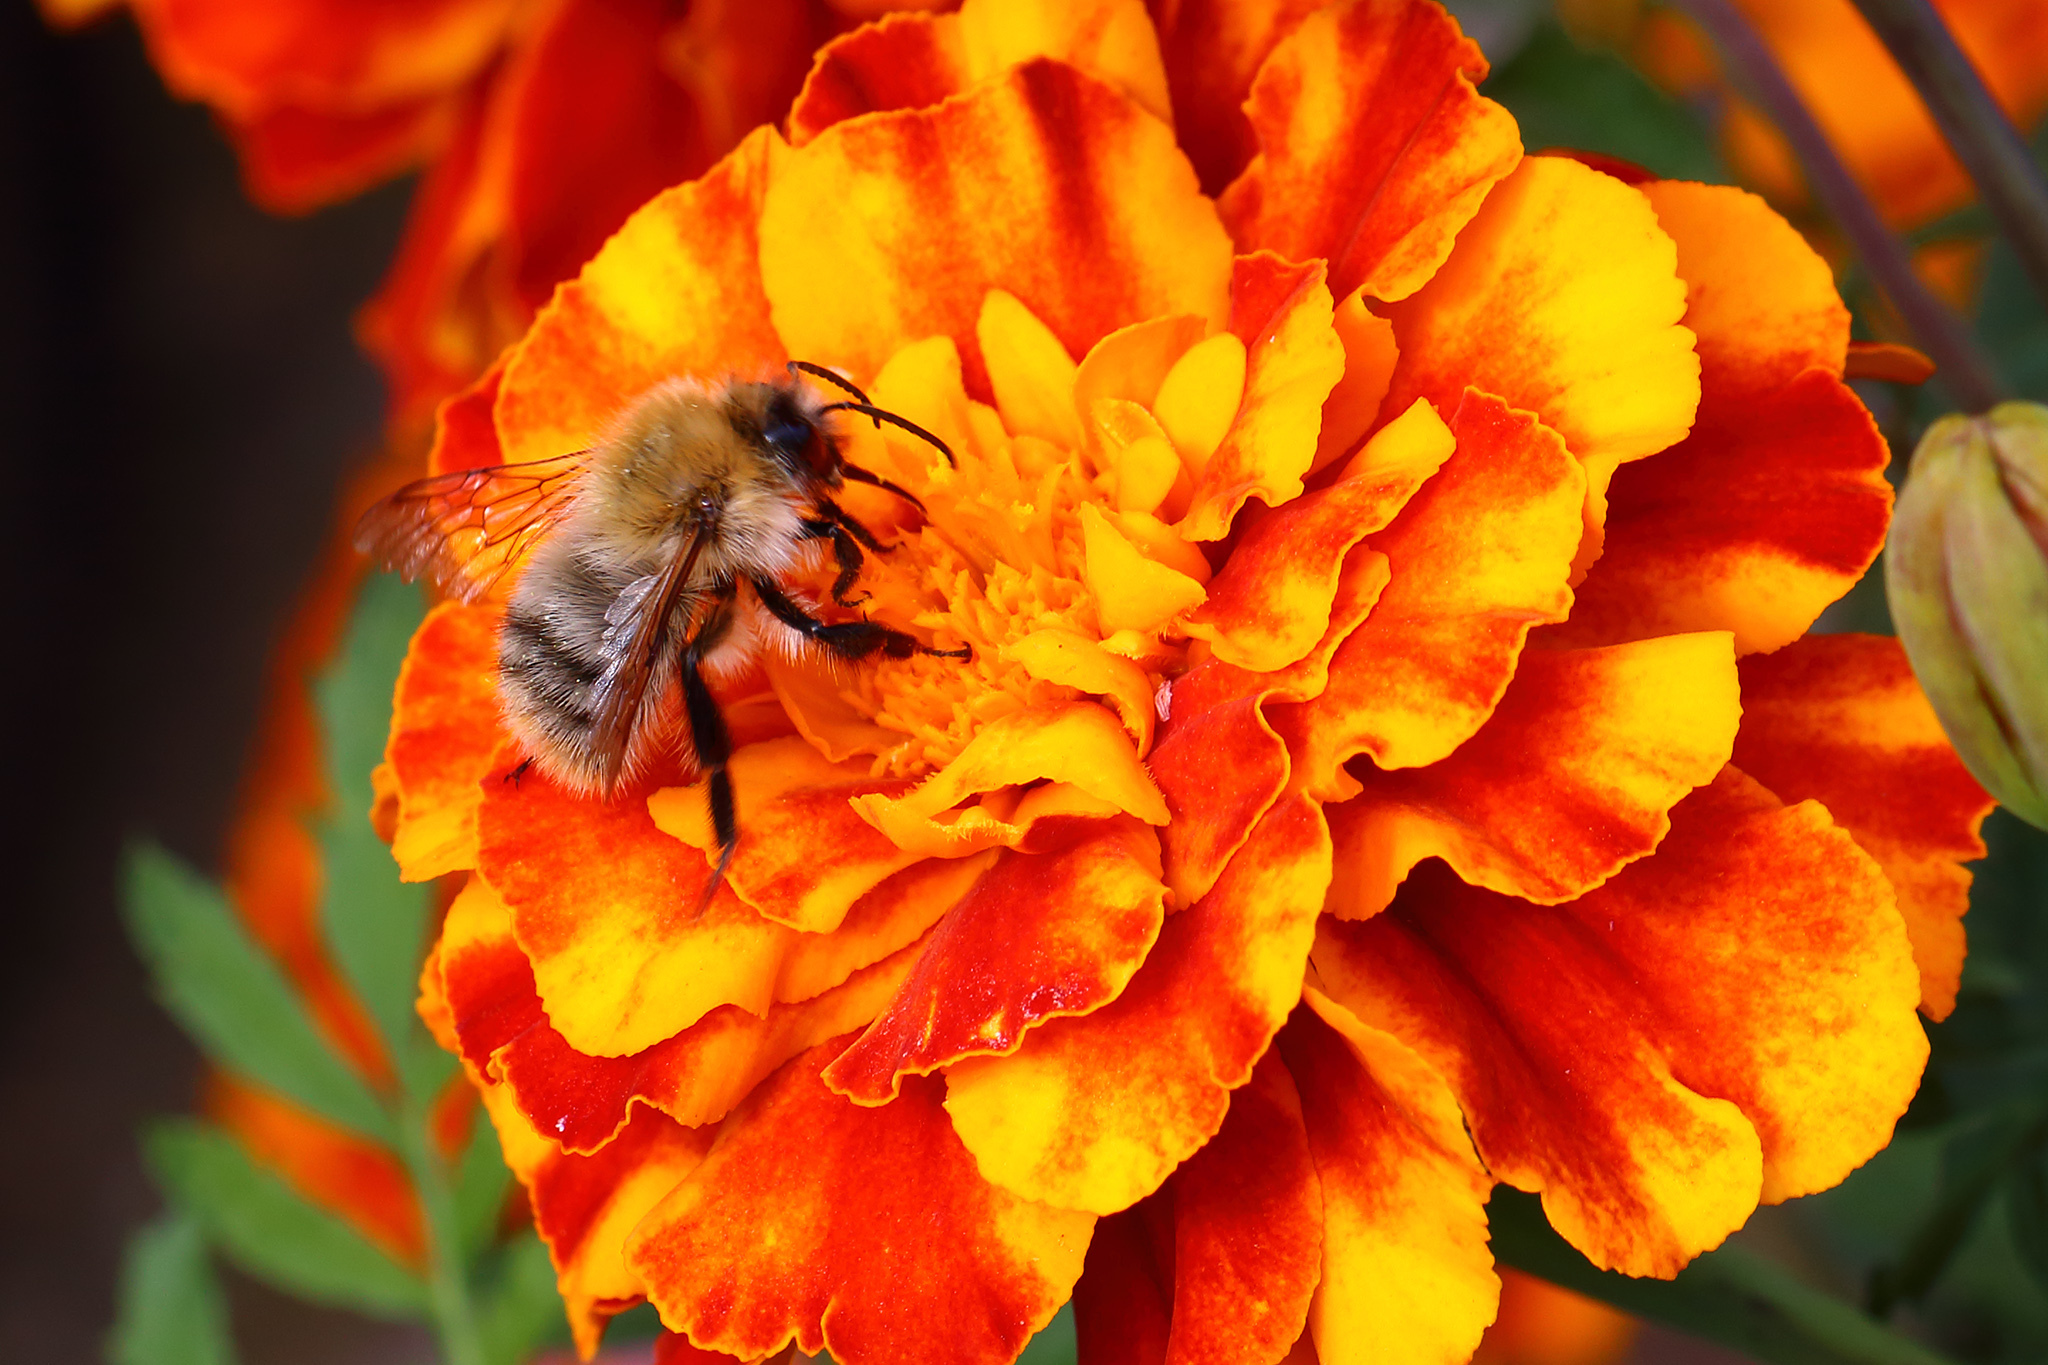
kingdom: Animalia
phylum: Arthropoda
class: Insecta
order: Hymenoptera
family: Apidae
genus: Bombus
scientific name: Bombus pascuorum
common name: Common carder bee
